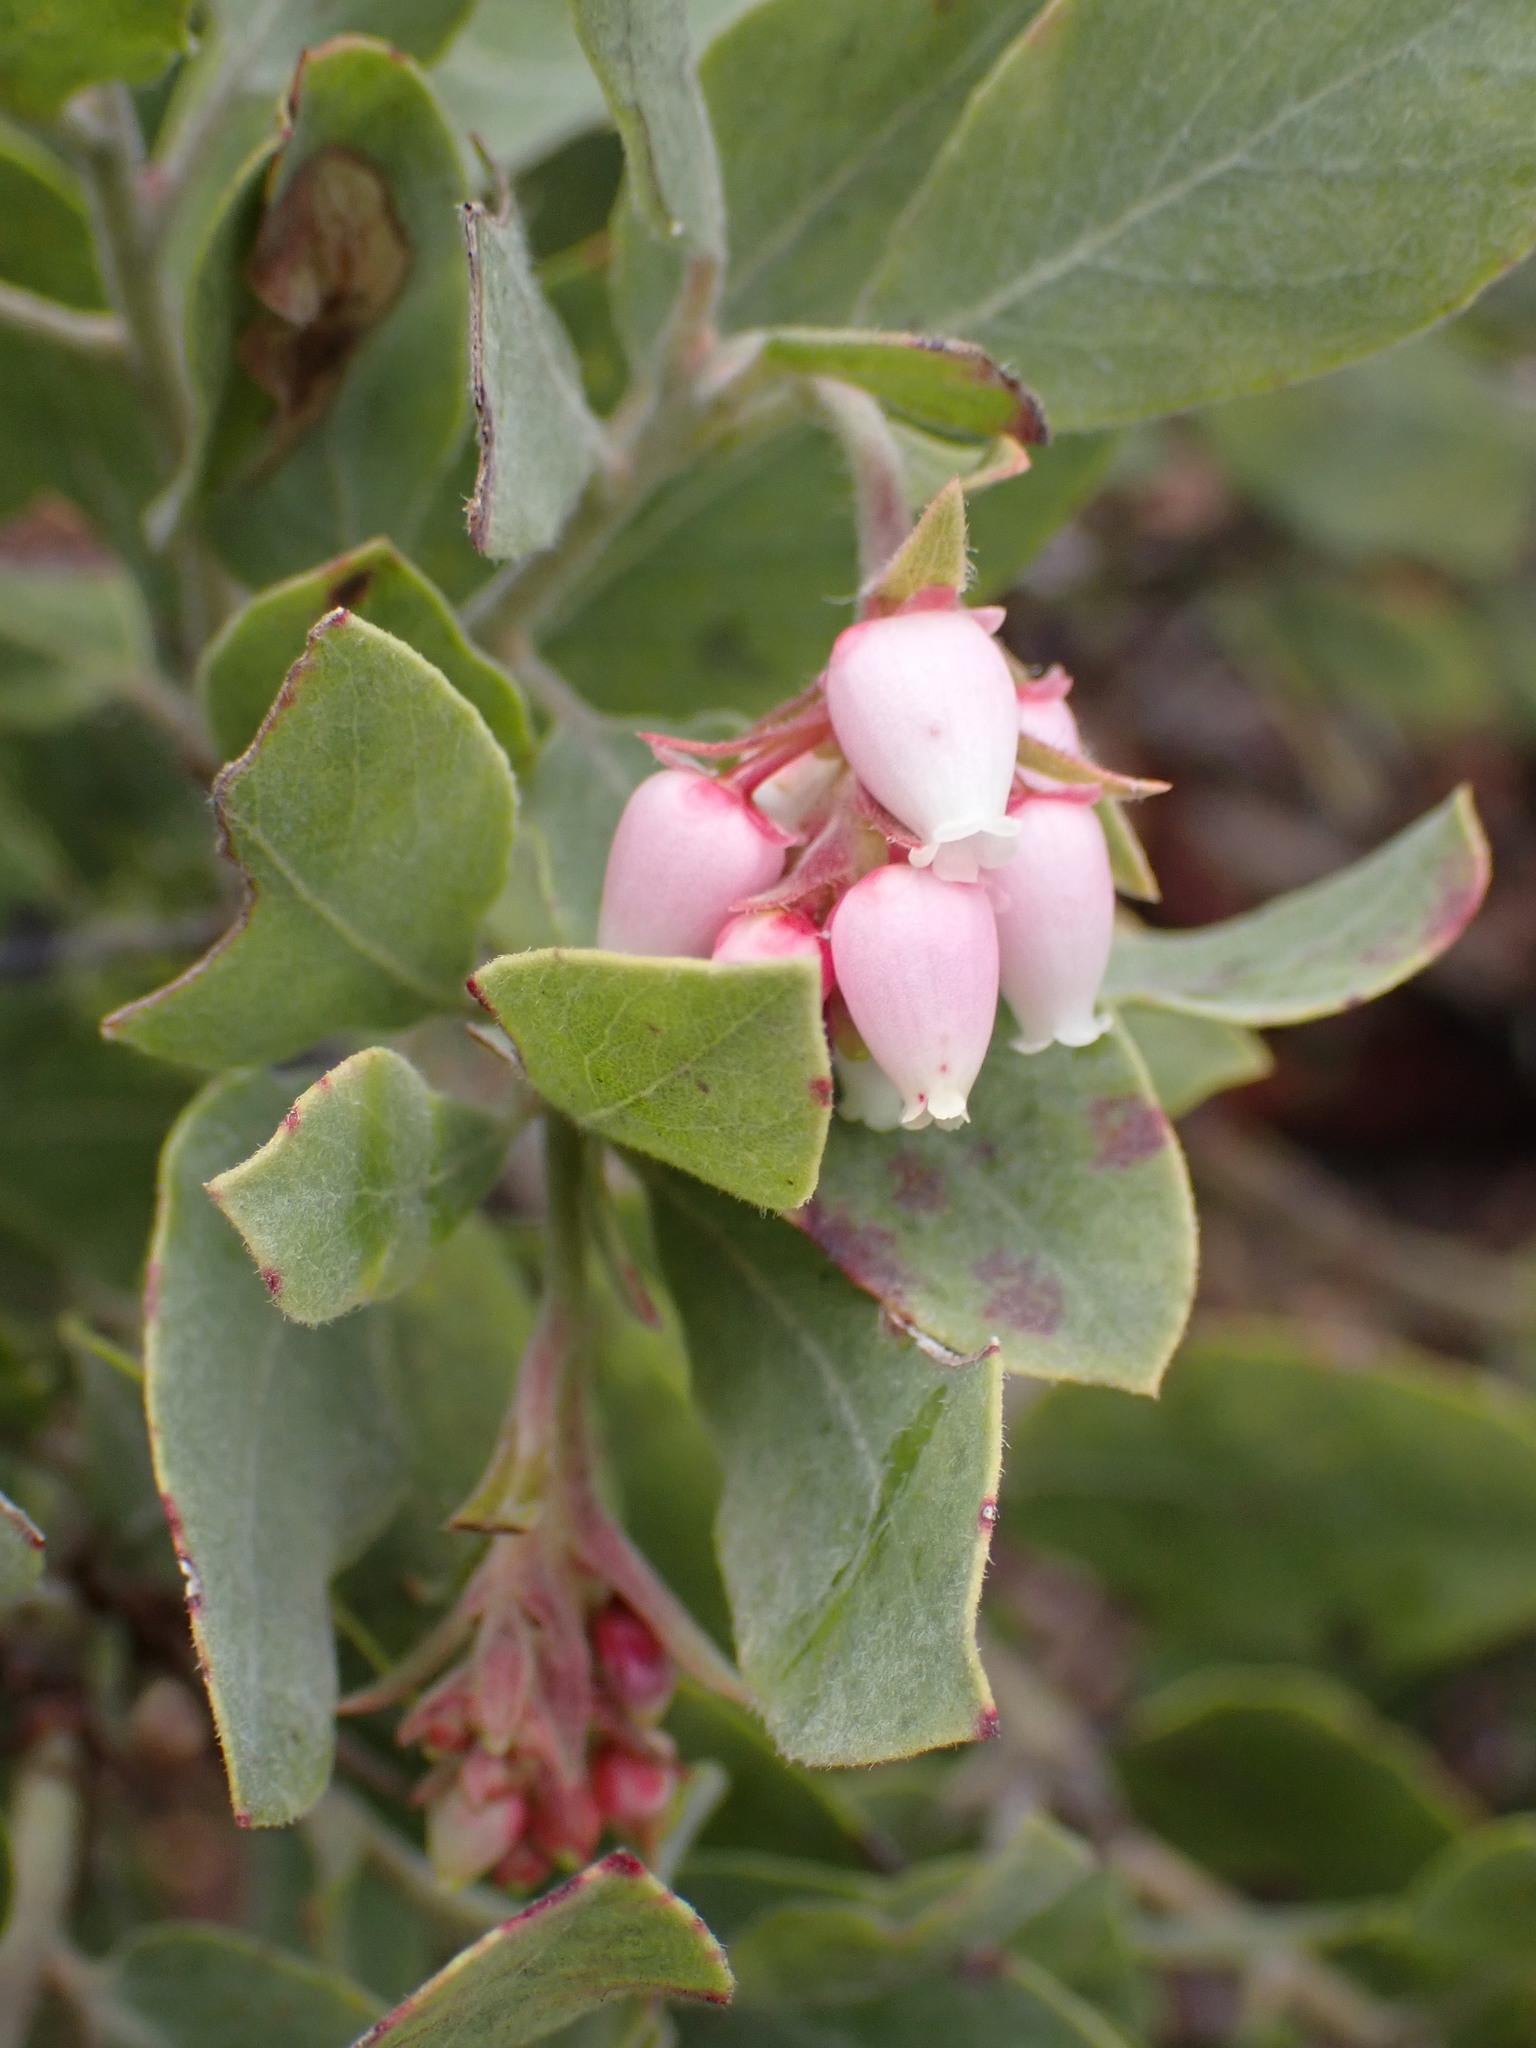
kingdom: Plantae
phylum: Tracheophyta
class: Magnoliopsida
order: Ericales
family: Ericaceae
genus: Arctostaphylos
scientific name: Arctostaphylos columbiana
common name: Bristly bearberry
